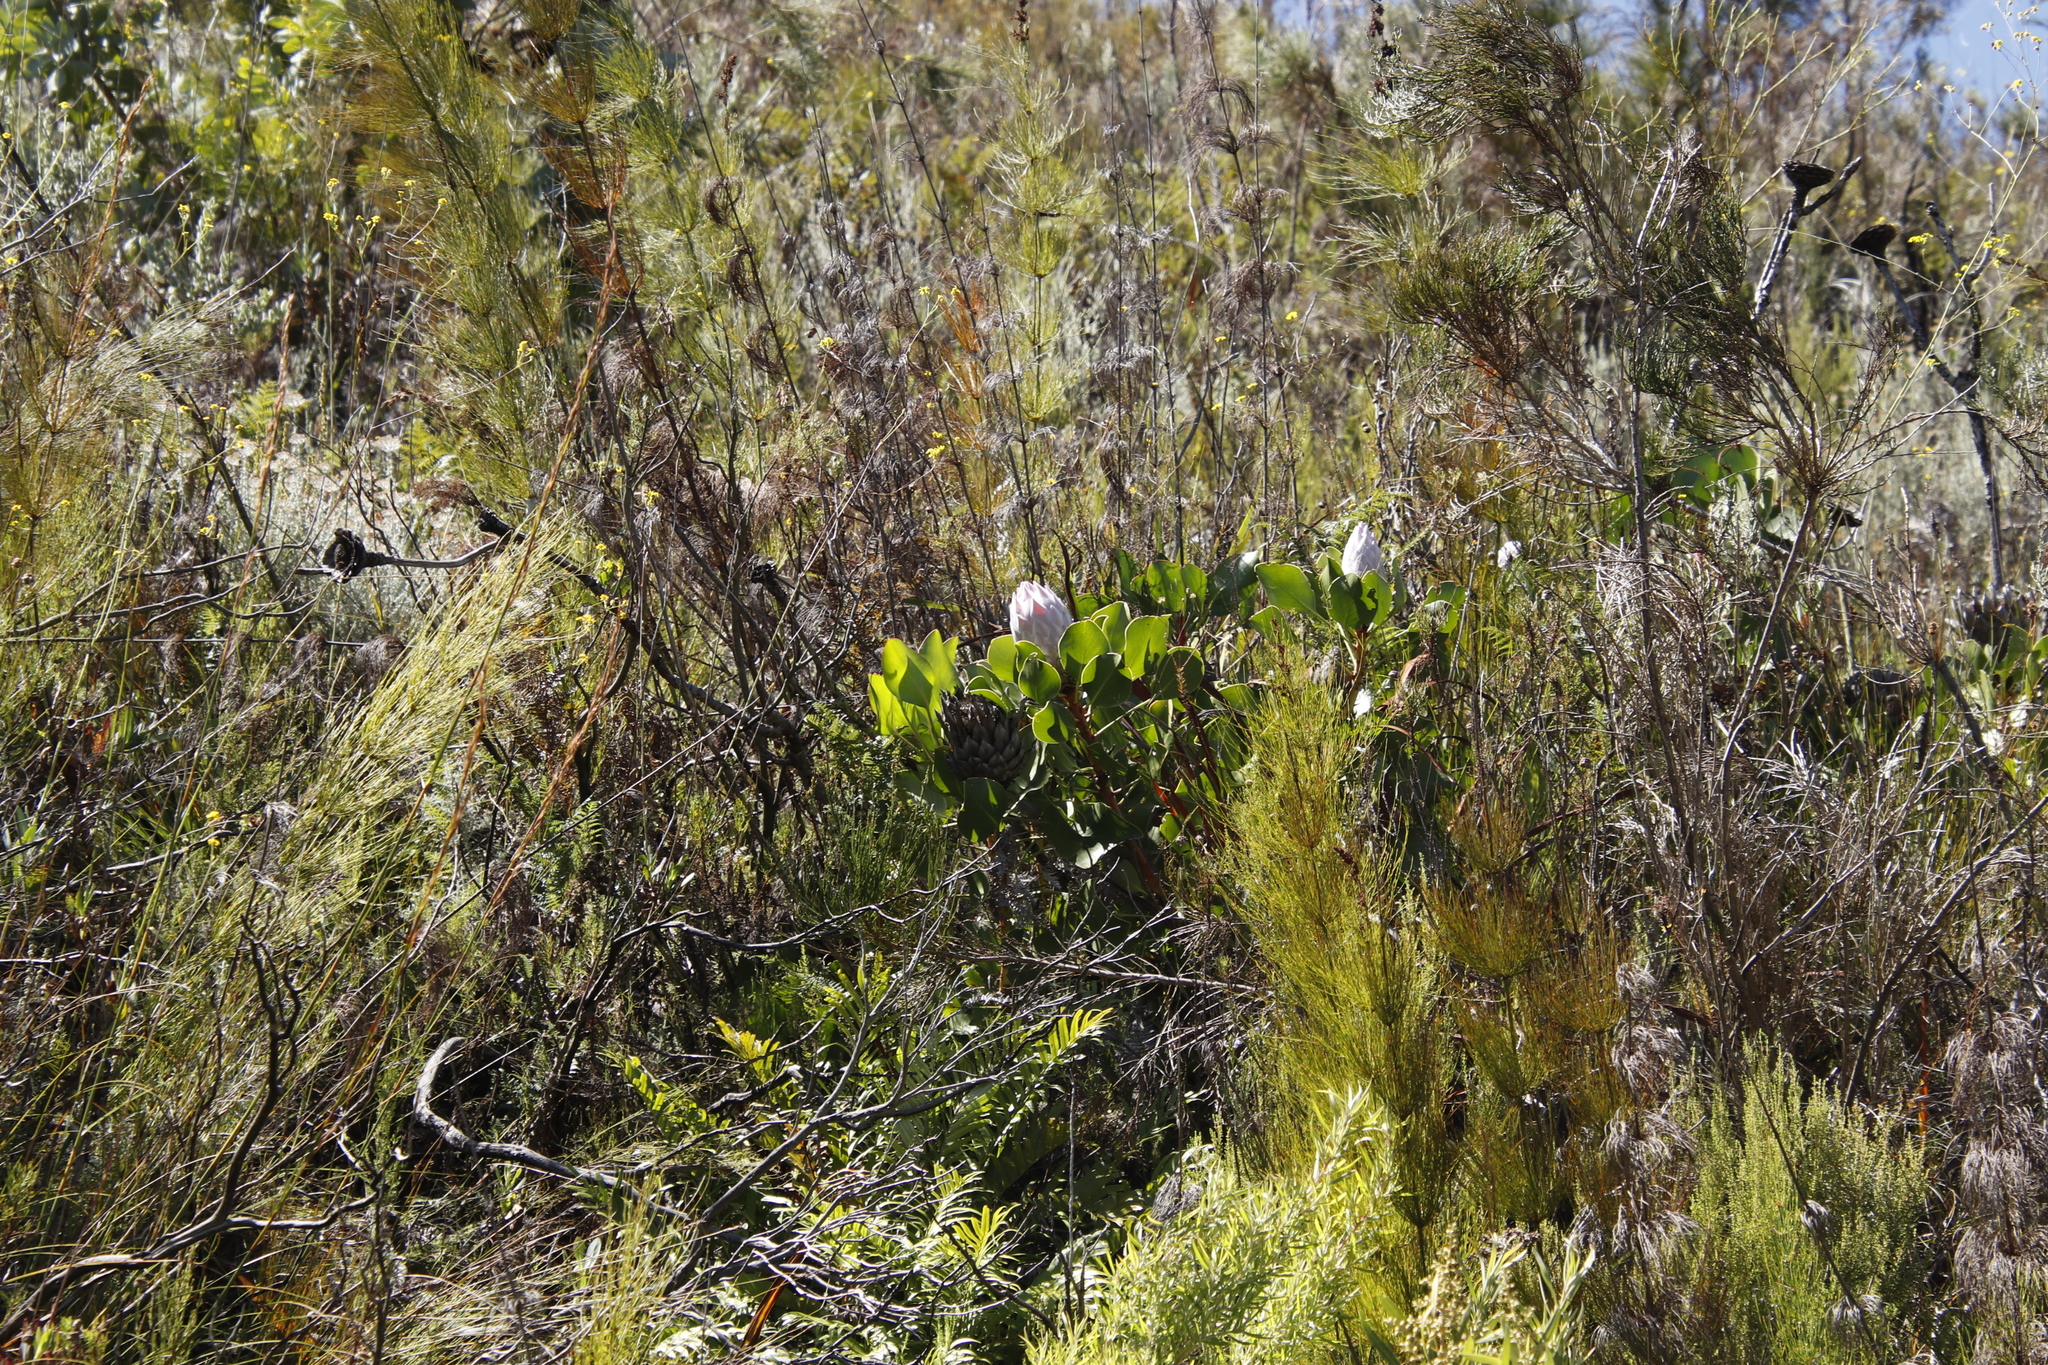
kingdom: Plantae
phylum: Tracheophyta
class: Magnoliopsida
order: Proteales
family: Proteaceae
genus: Protea
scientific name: Protea cynaroides
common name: King protea
